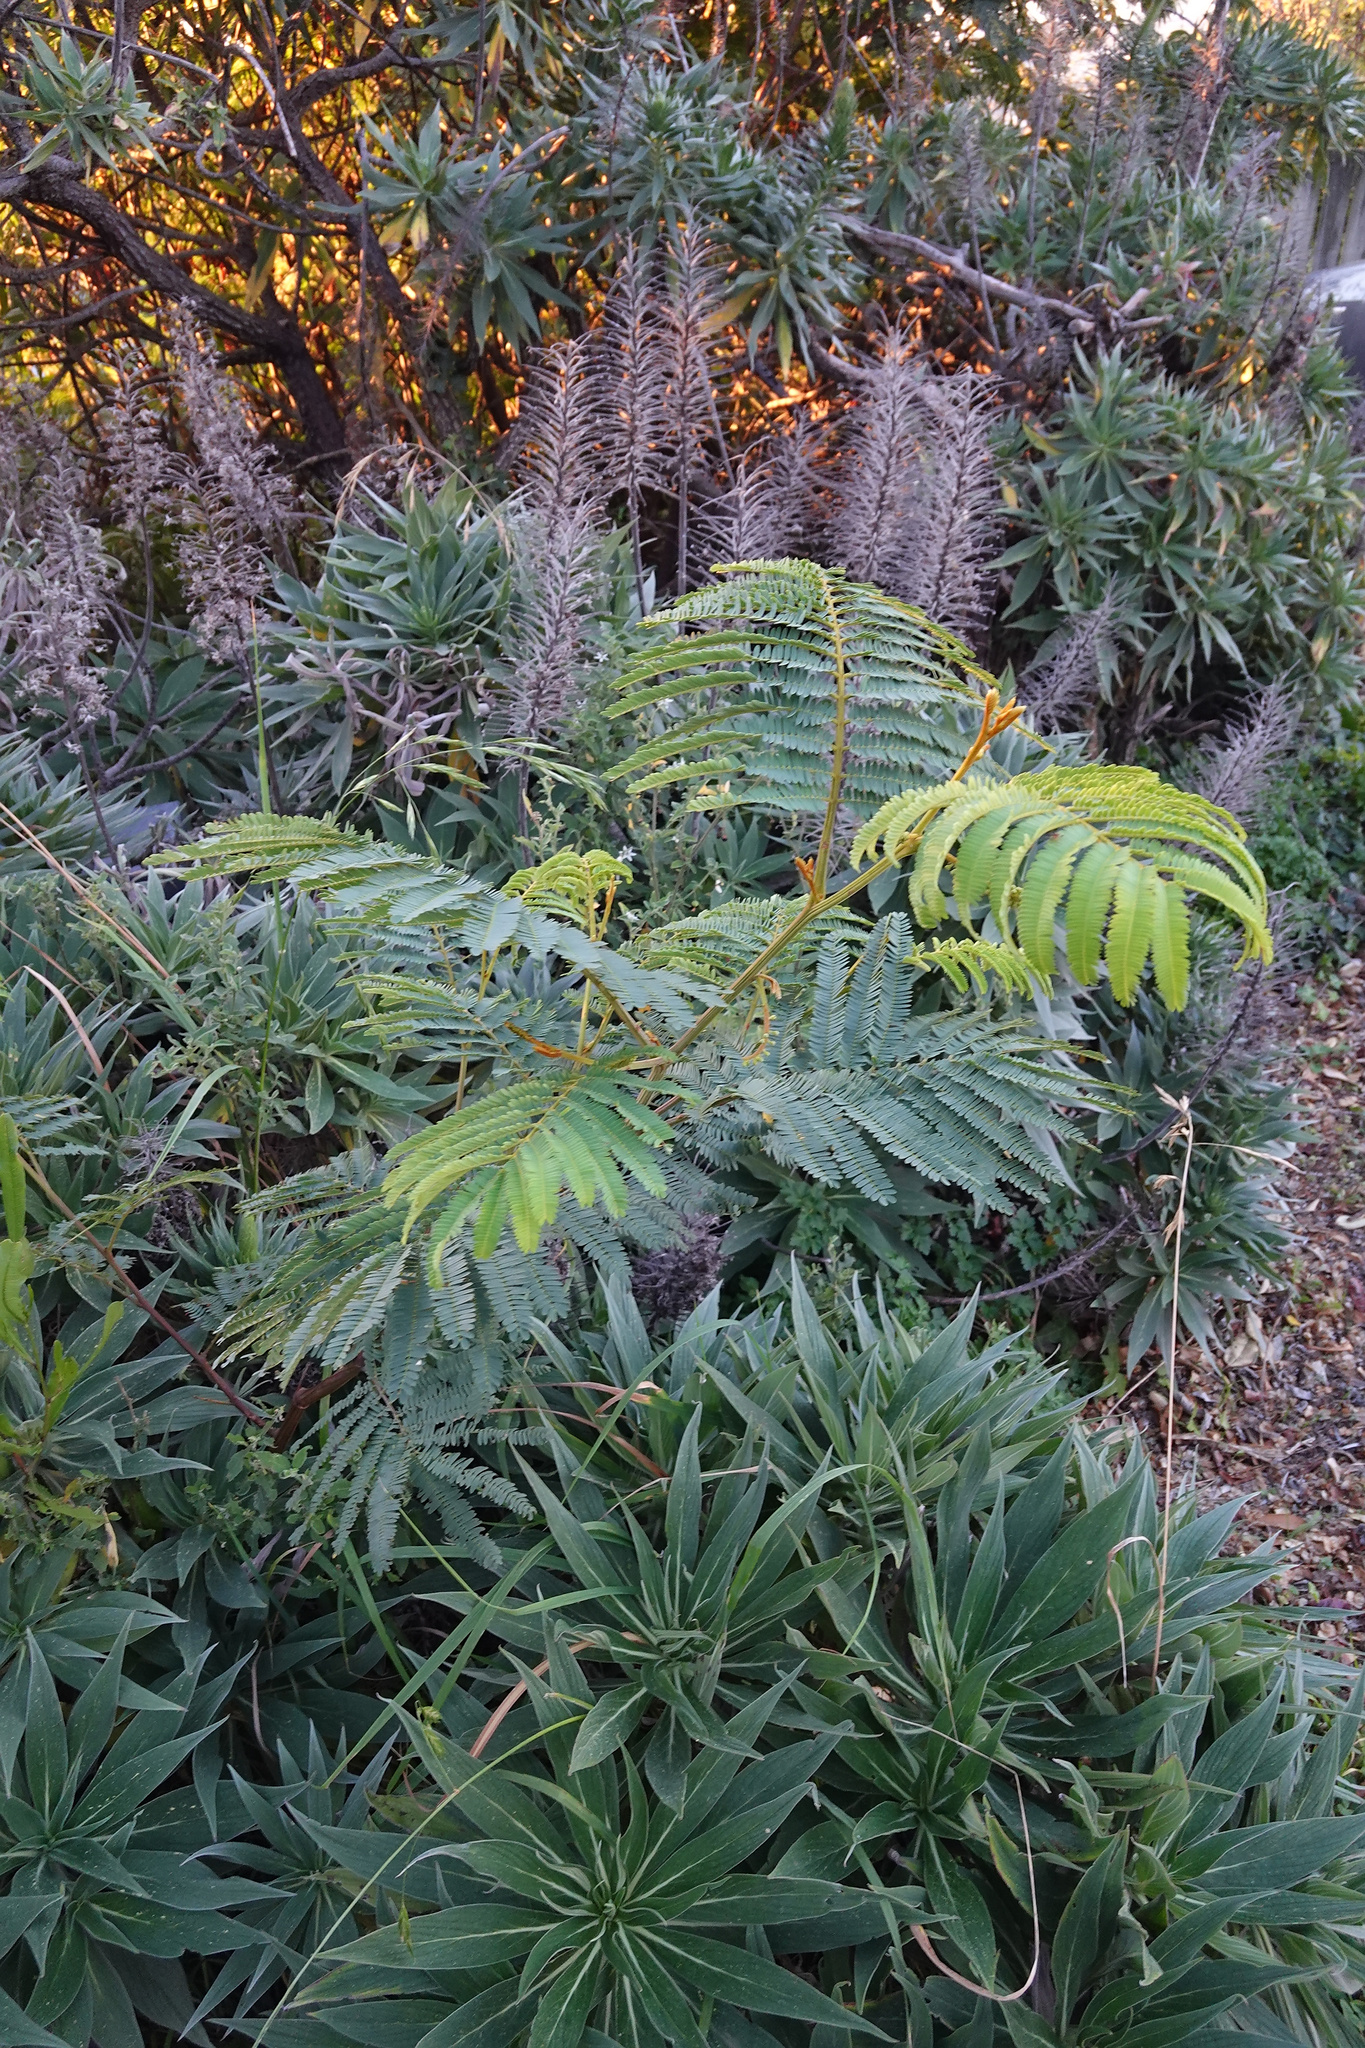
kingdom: Plantae
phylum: Tracheophyta
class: Magnoliopsida
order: Fabales
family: Fabaceae
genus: Paraserianthes
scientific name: Paraserianthes lophantha
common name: Plume albizia
